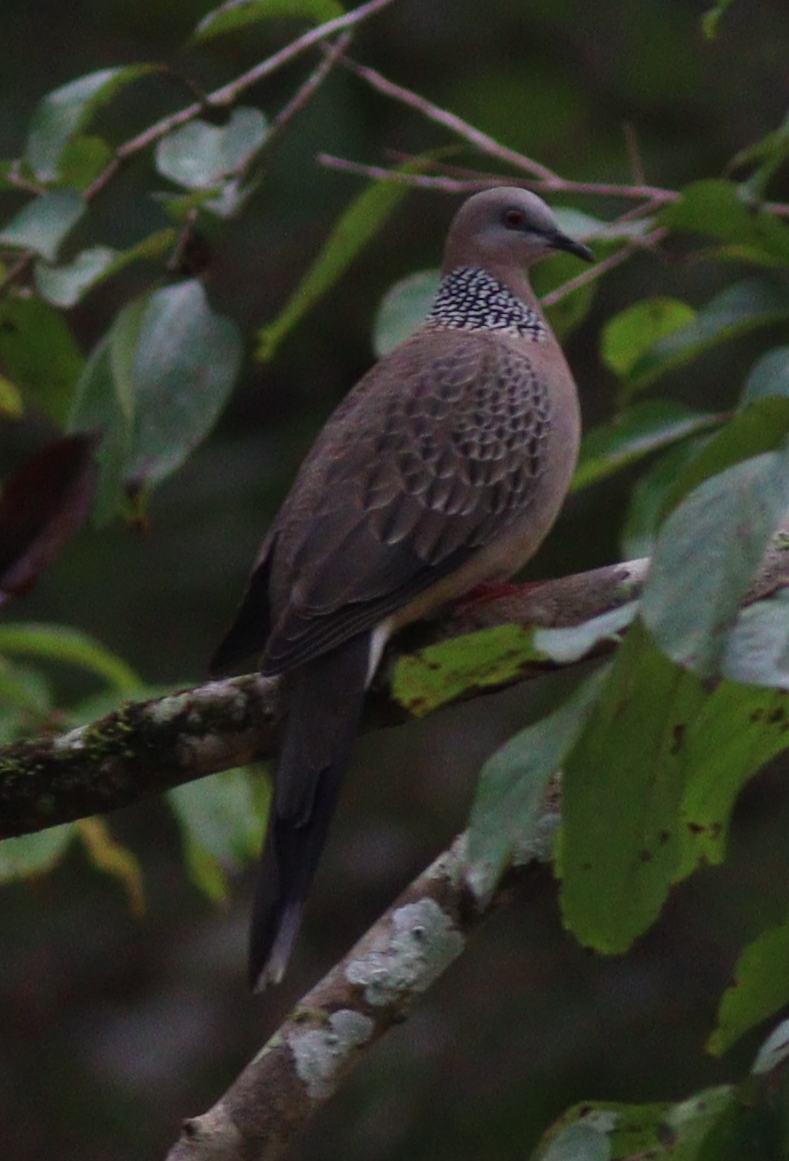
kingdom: Animalia
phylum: Chordata
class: Aves
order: Columbiformes
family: Columbidae
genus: Spilopelia
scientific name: Spilopelia chinensis
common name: Spotted dove
